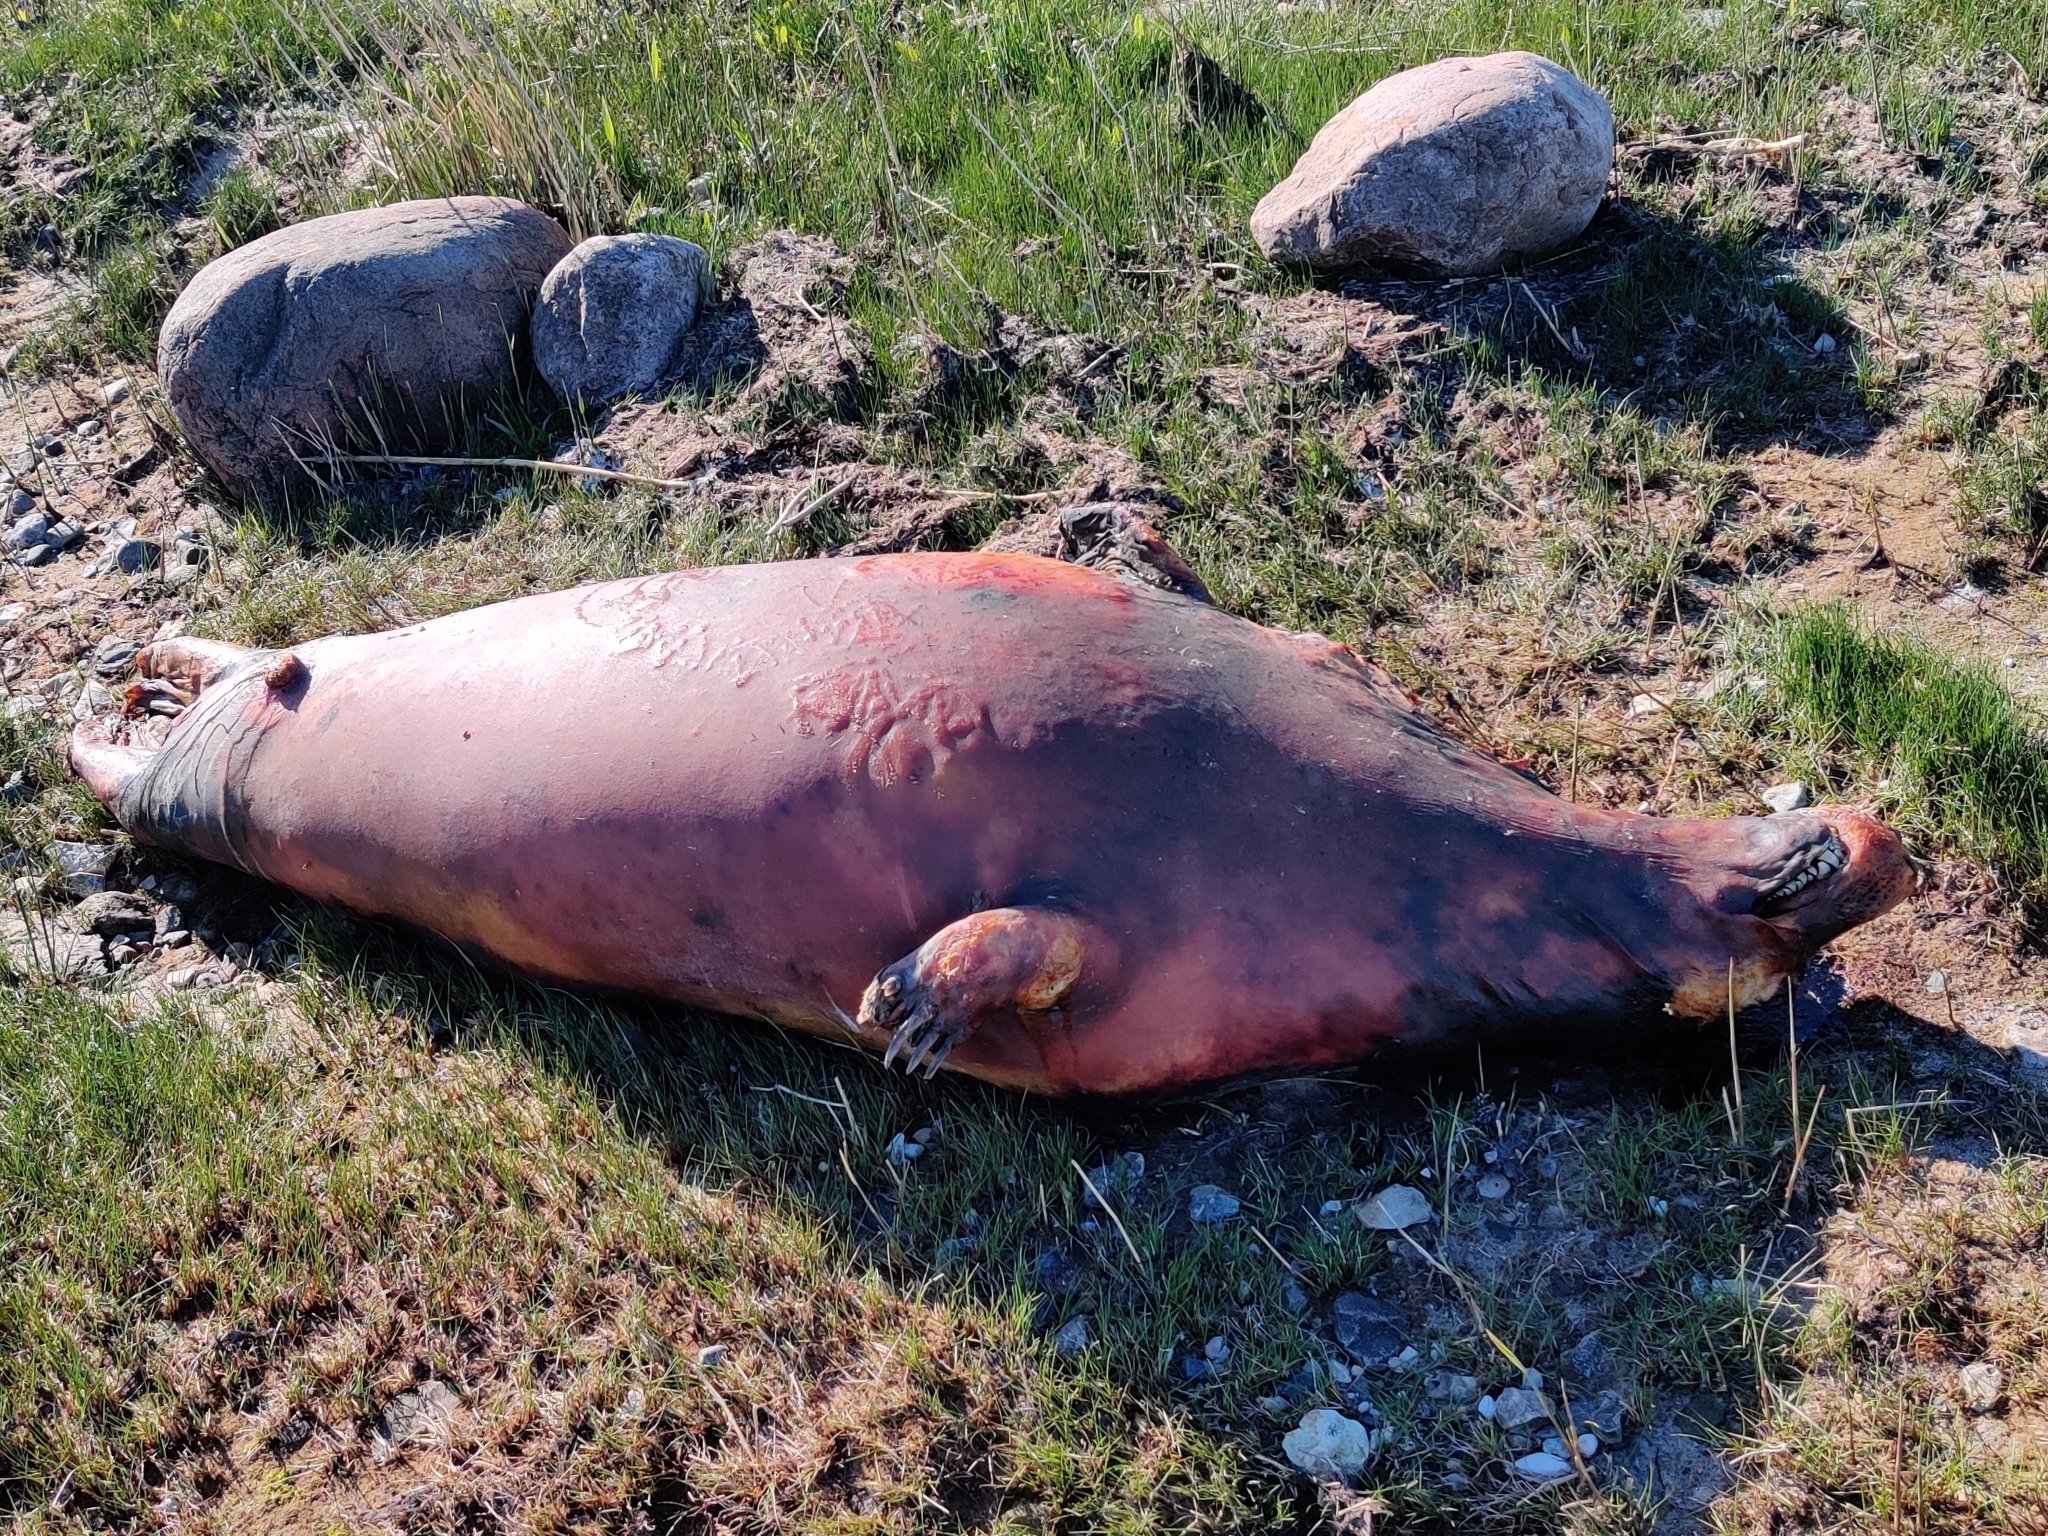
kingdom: Animalia
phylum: Chordata
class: Mammalia
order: Carnivora
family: Phocidae
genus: Halichoerus
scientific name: Halichoerus grypus
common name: Grey seal
